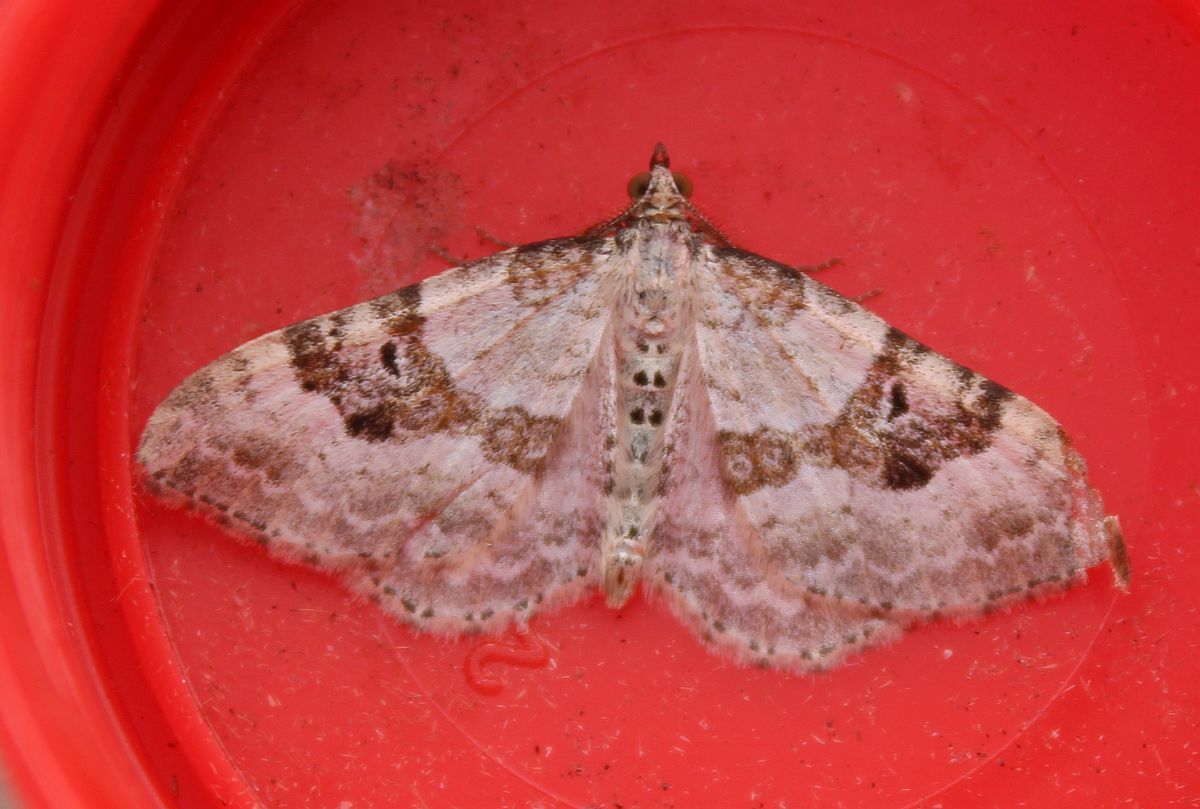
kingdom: Animalia
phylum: Arthropoda
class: Insecta
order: Lepidoptera
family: Geometridae
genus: Xanthorhoe
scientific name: Xanthorhoe montanata
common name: Silver-ground carpet
